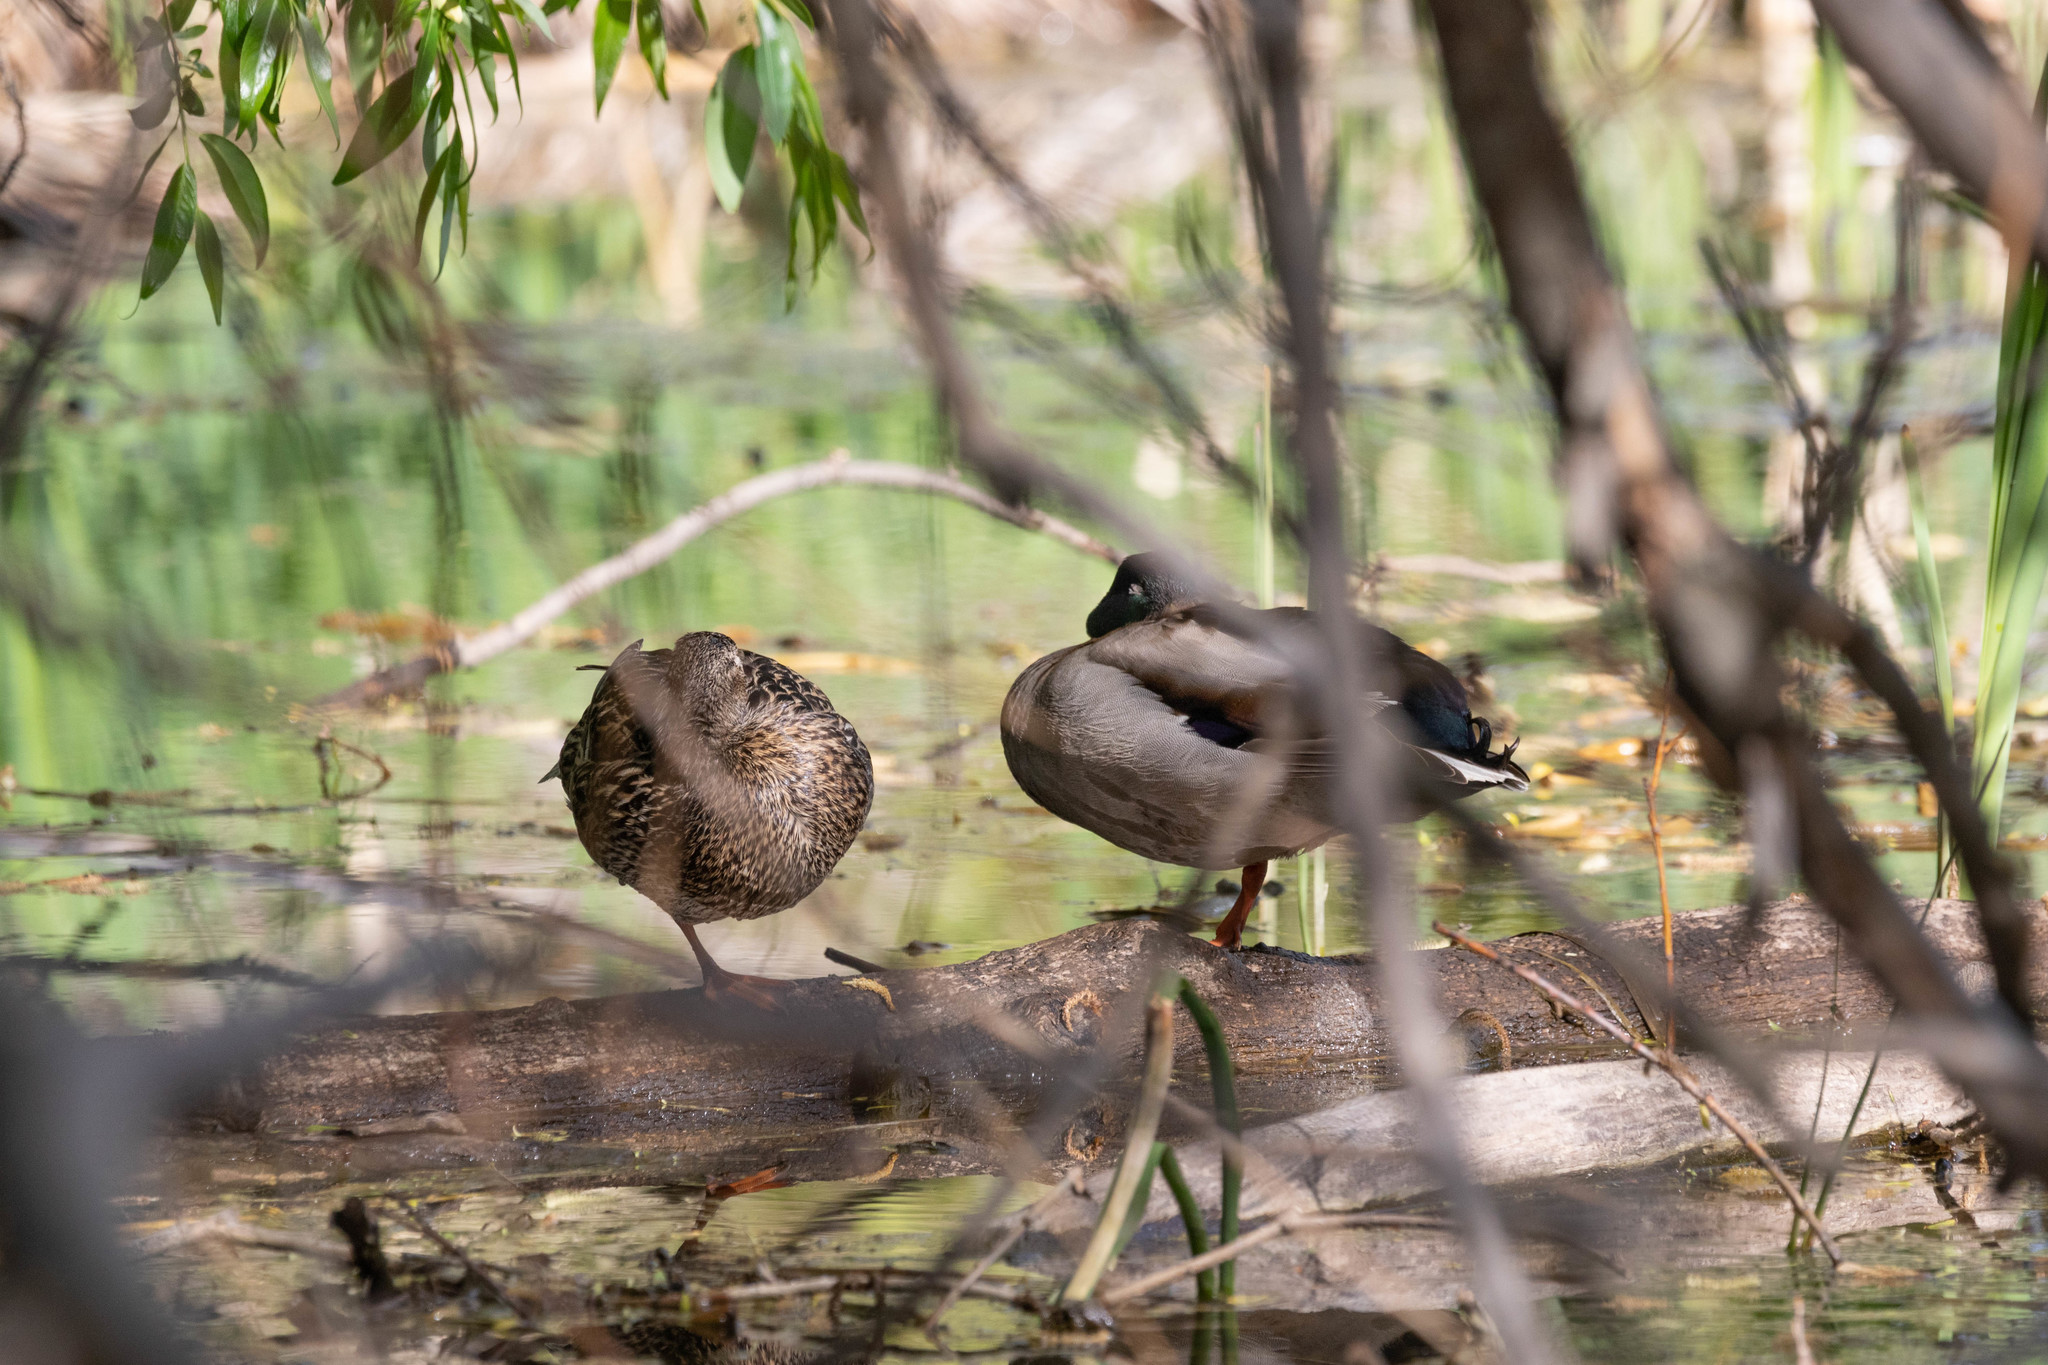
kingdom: Animalia
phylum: Chordata
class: Aves
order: Anseriformes
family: Anatidae
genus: Anas
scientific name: Anas platyrhynchos
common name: Mallard
